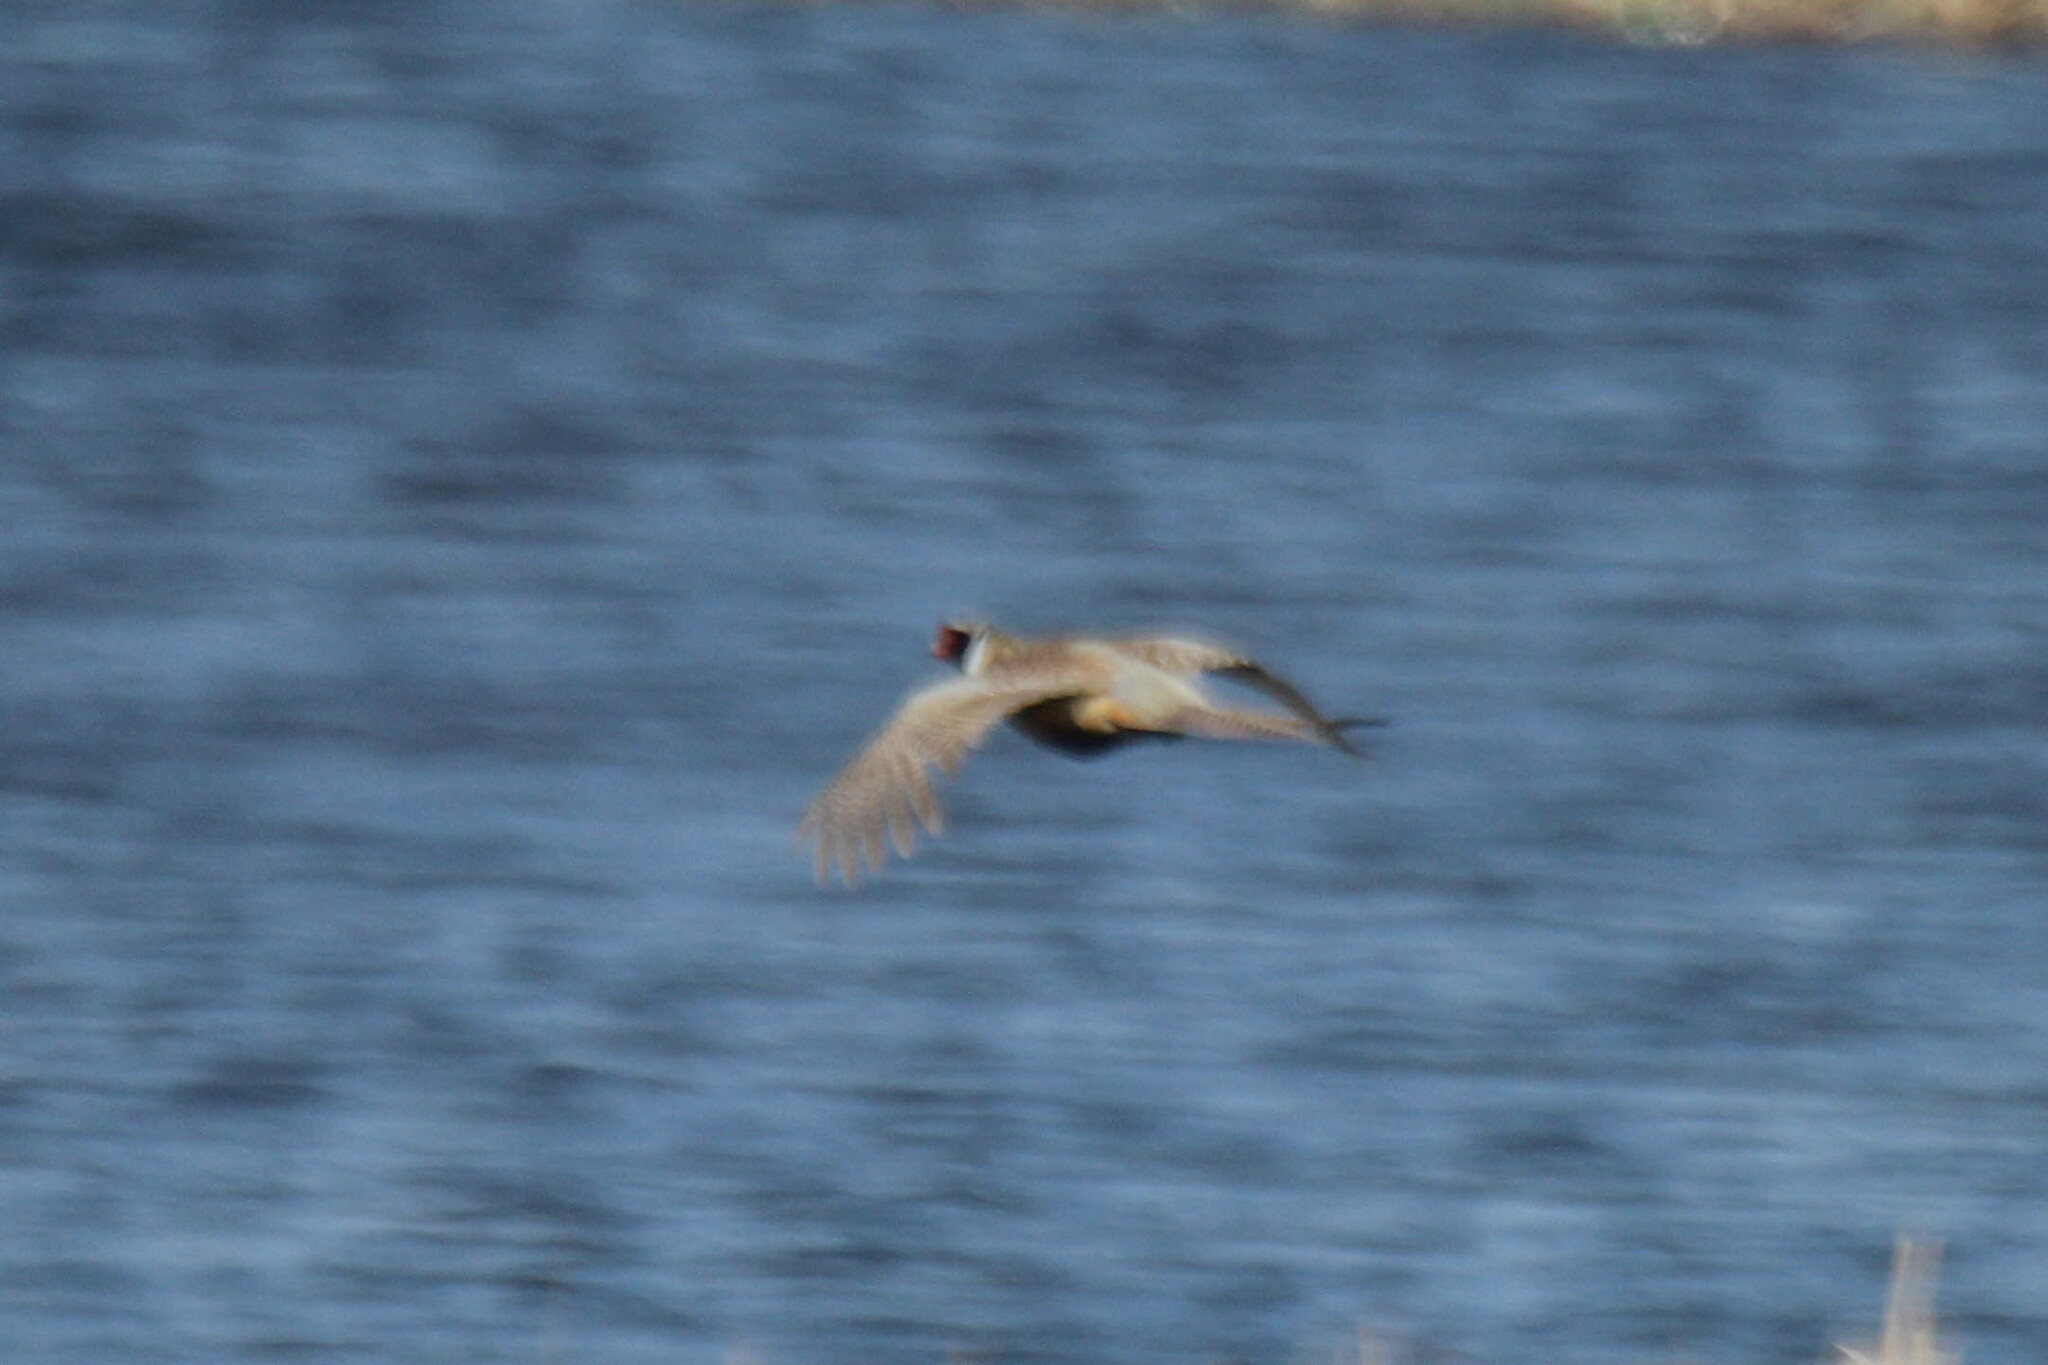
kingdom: Animalia
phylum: Chordata
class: Aves
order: Galliformes
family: Phasianidae
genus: Phasianus
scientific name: Phasianus colchicus
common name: Common pheasant
